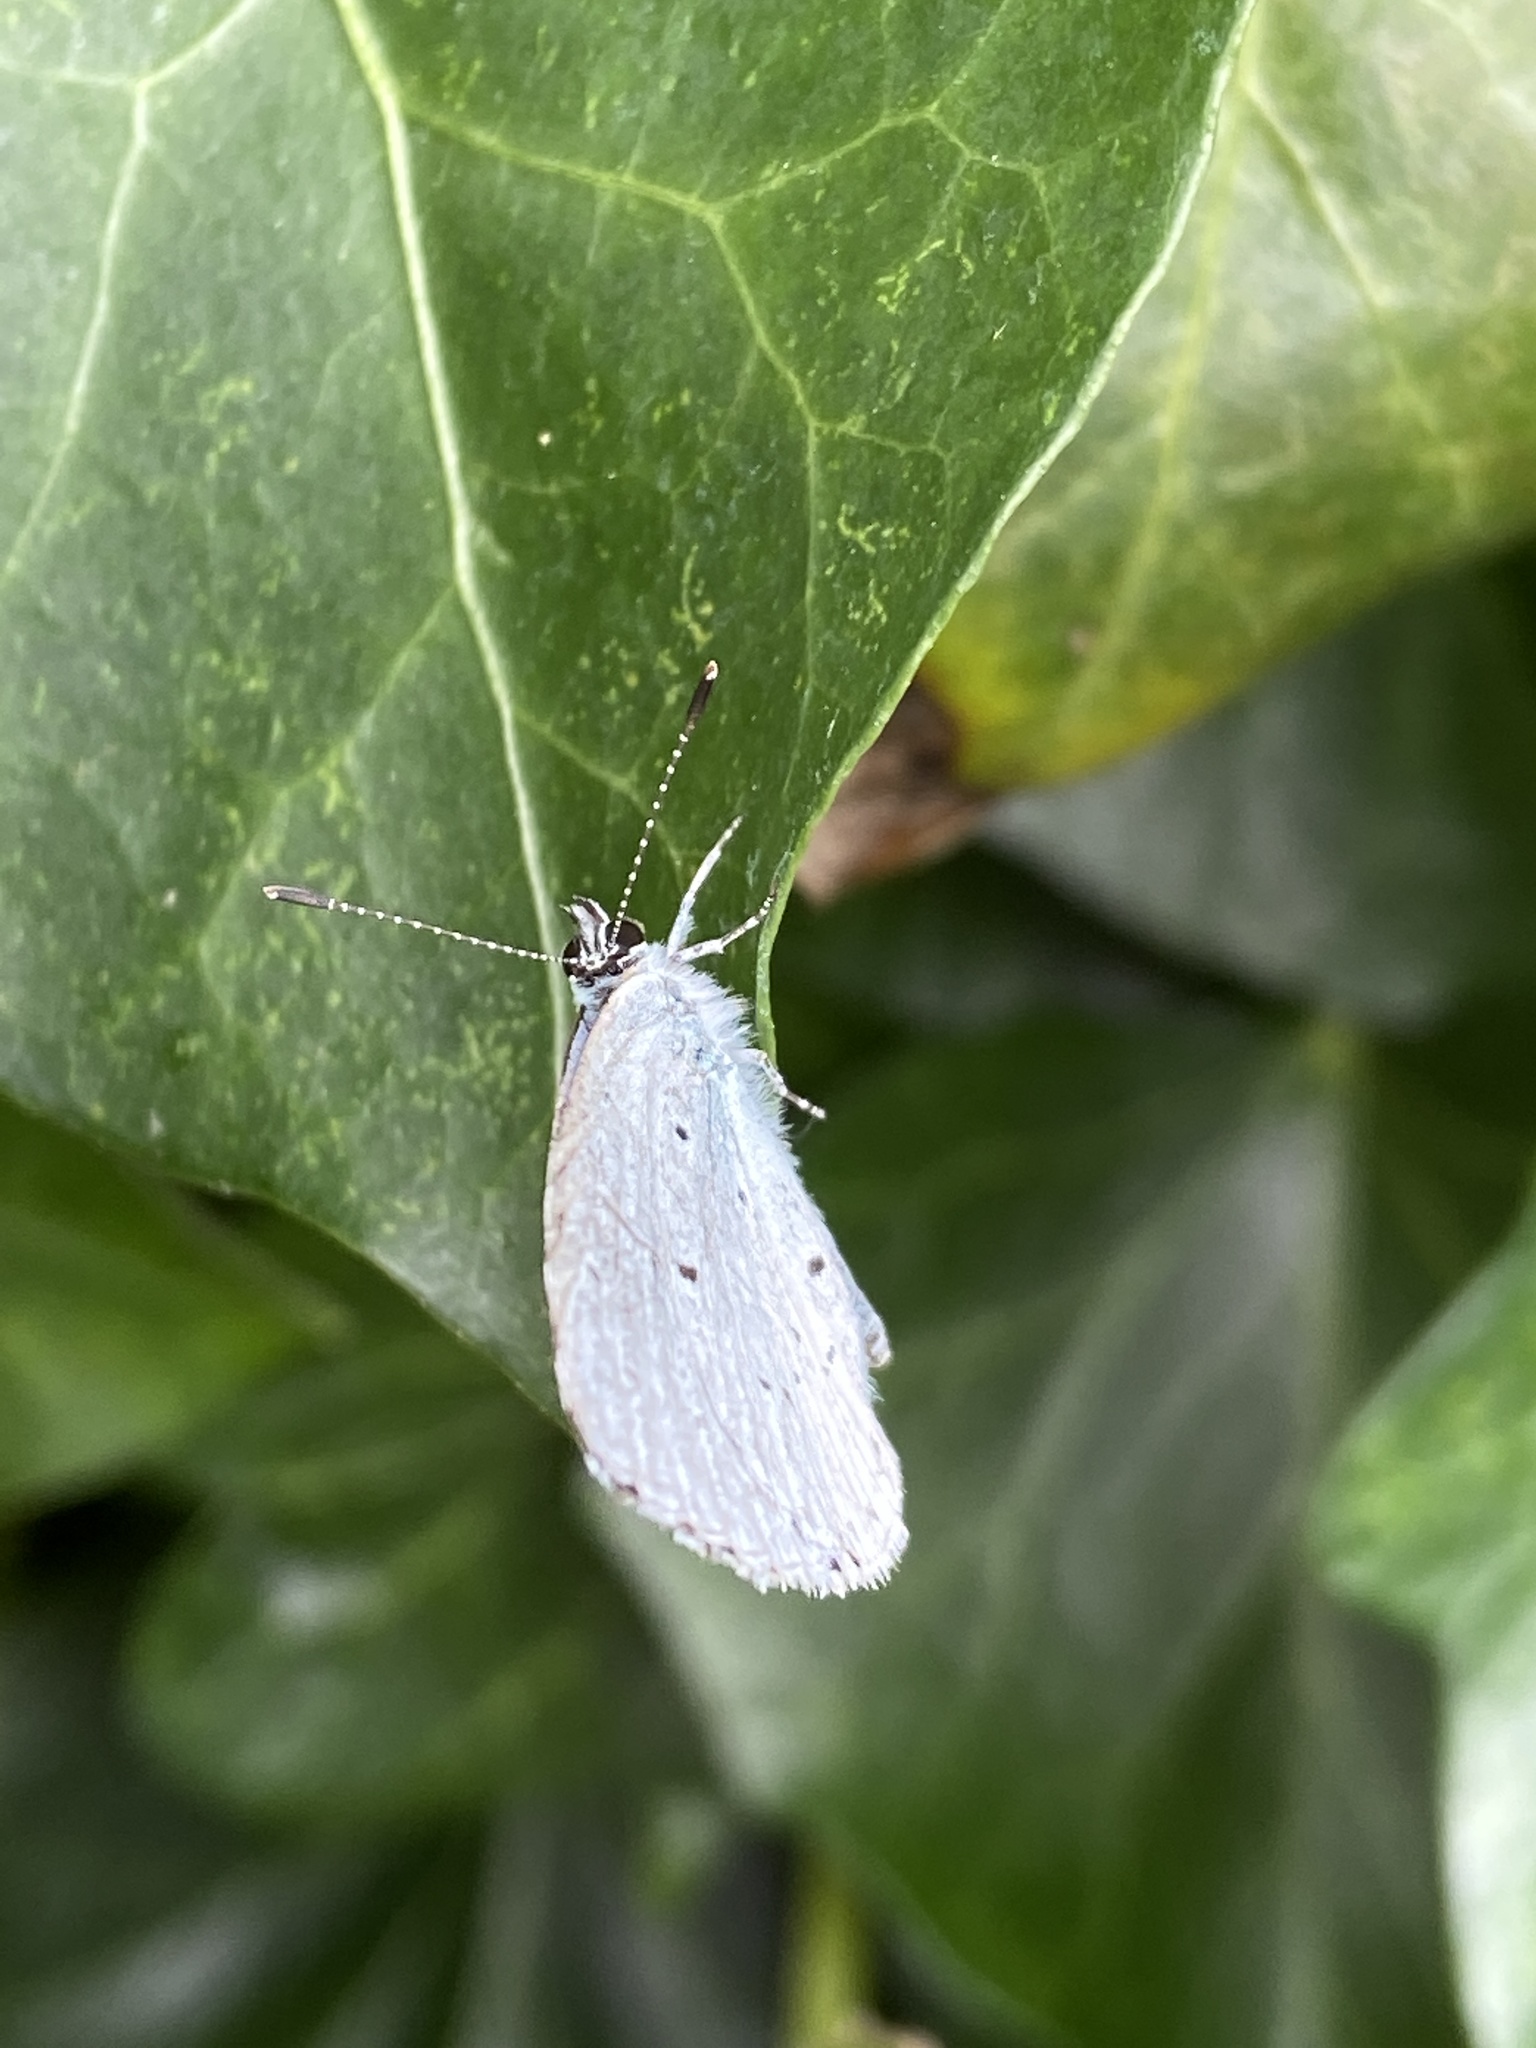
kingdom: Animalia
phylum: Arthropoda
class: Insecta
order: Lepidoptera
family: Lycaenidae
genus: Celastrina
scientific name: Celastrina argiolus
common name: Holly blue
